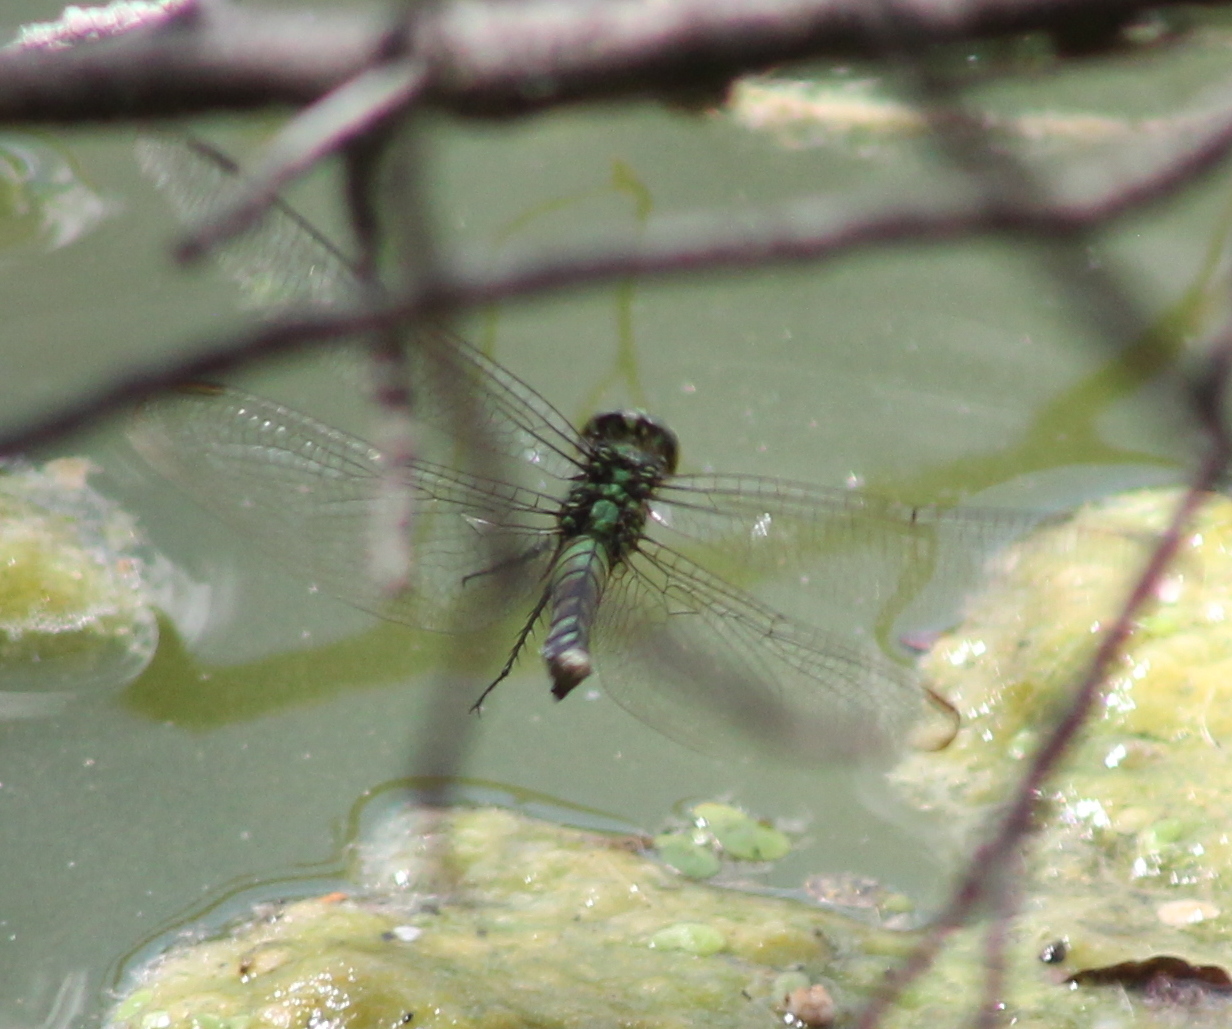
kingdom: Animalia
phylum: Arthropoda
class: Insecta
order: Odonata
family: Libellulidae
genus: Erythemis
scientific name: Erythemis simplicicollis
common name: Eastern pondhawk
